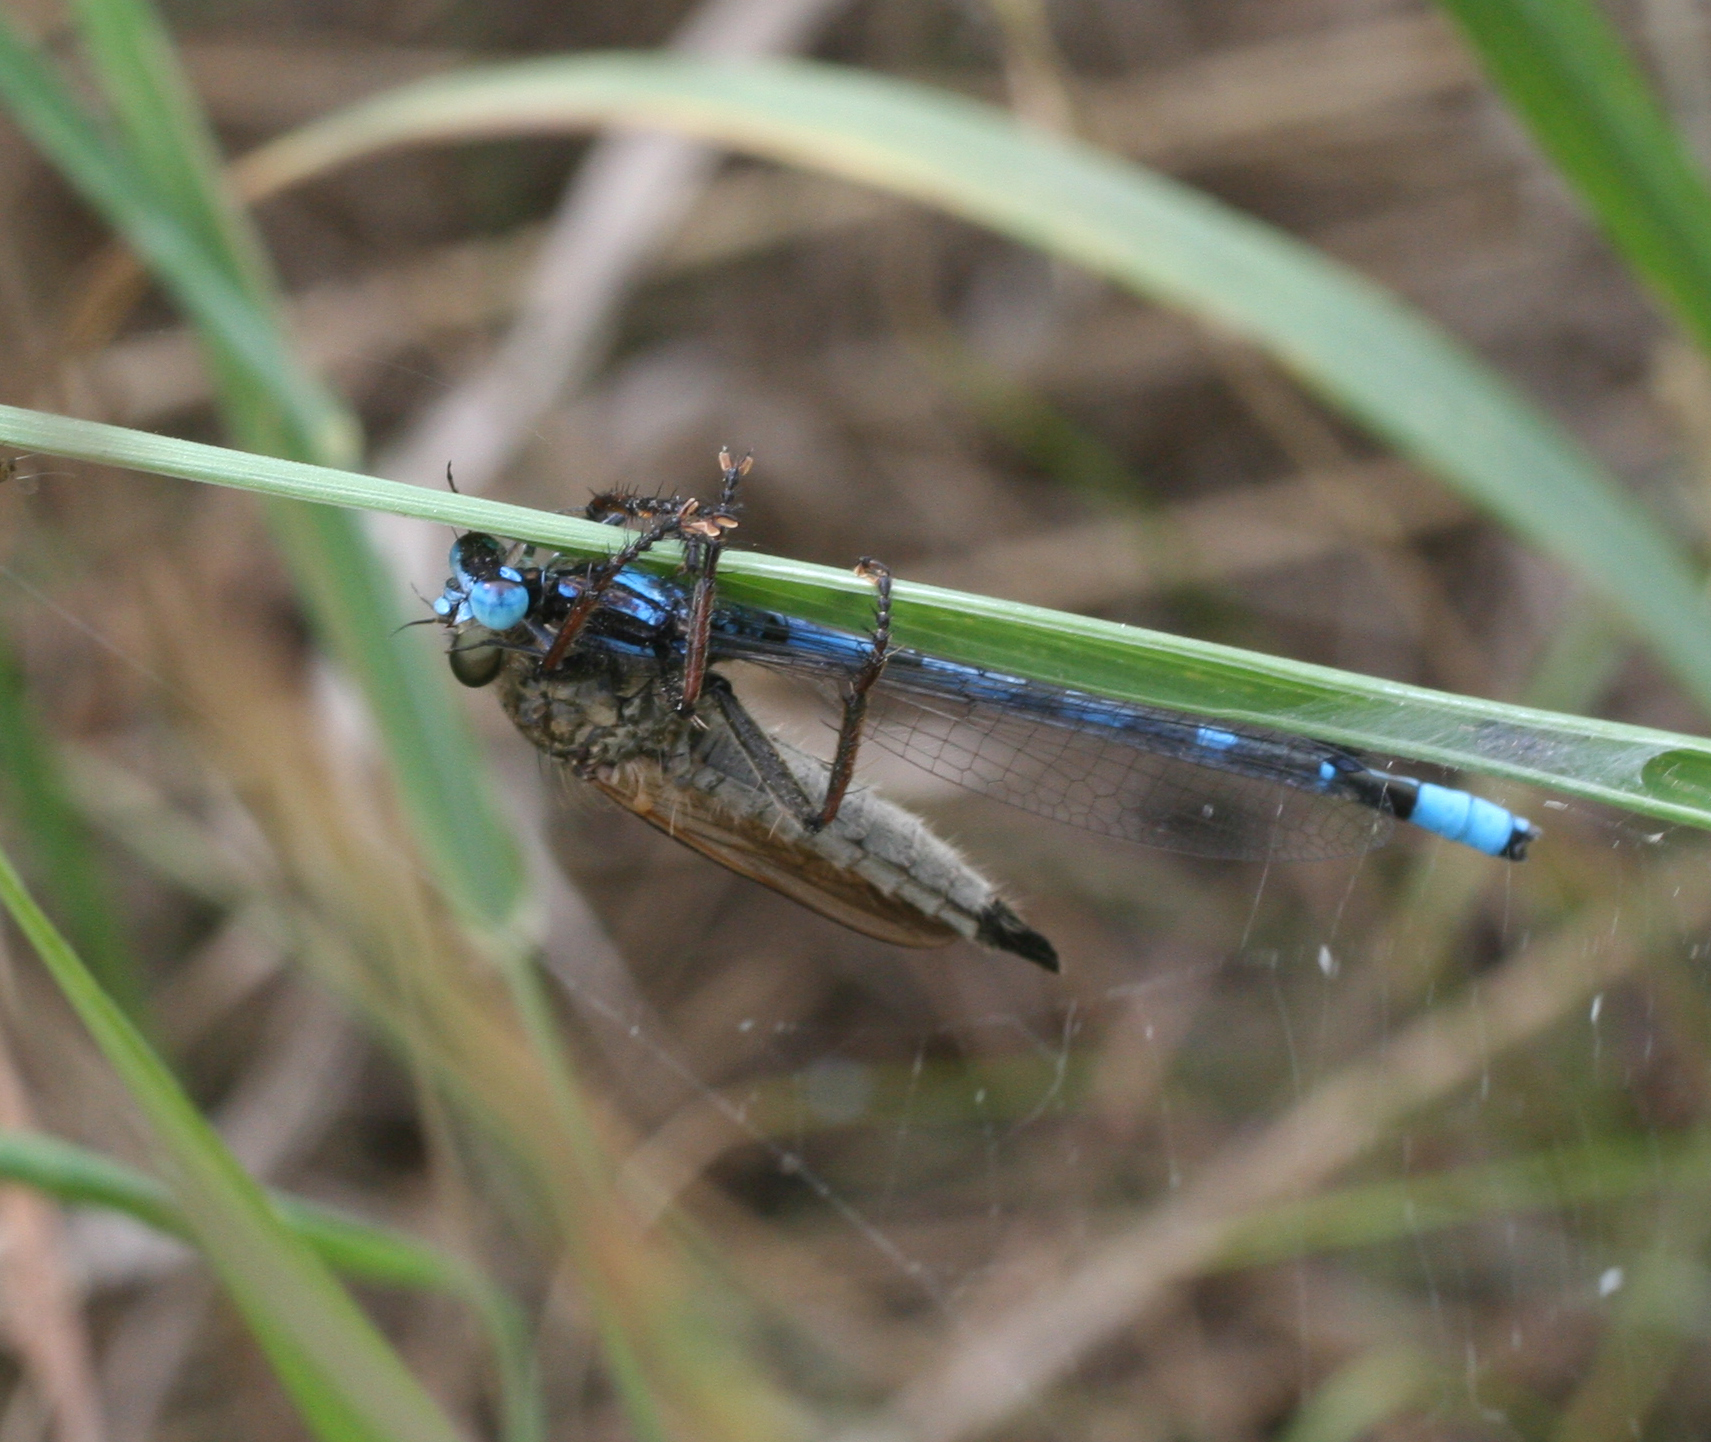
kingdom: Animalia
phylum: Arthropoda
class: Insecta
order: Odonata
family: Coenagrionidae
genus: Enallagma
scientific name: Enallagma cyathigerum
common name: Common blue damselfly
